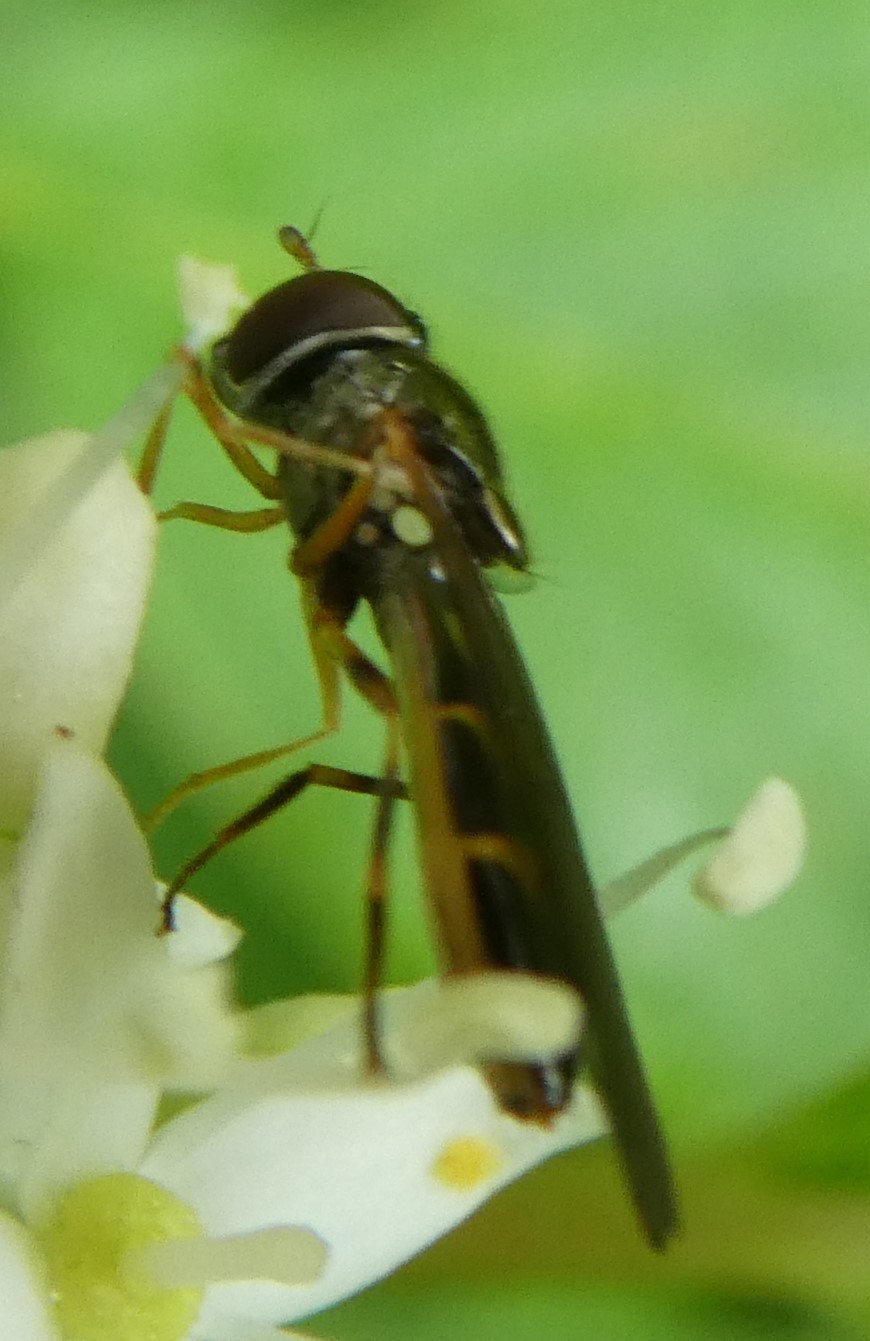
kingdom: Animalia
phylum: Arthropoda
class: Insecta
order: Diptera
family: Syrphidae
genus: Melanostoma
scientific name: Melanostoma
